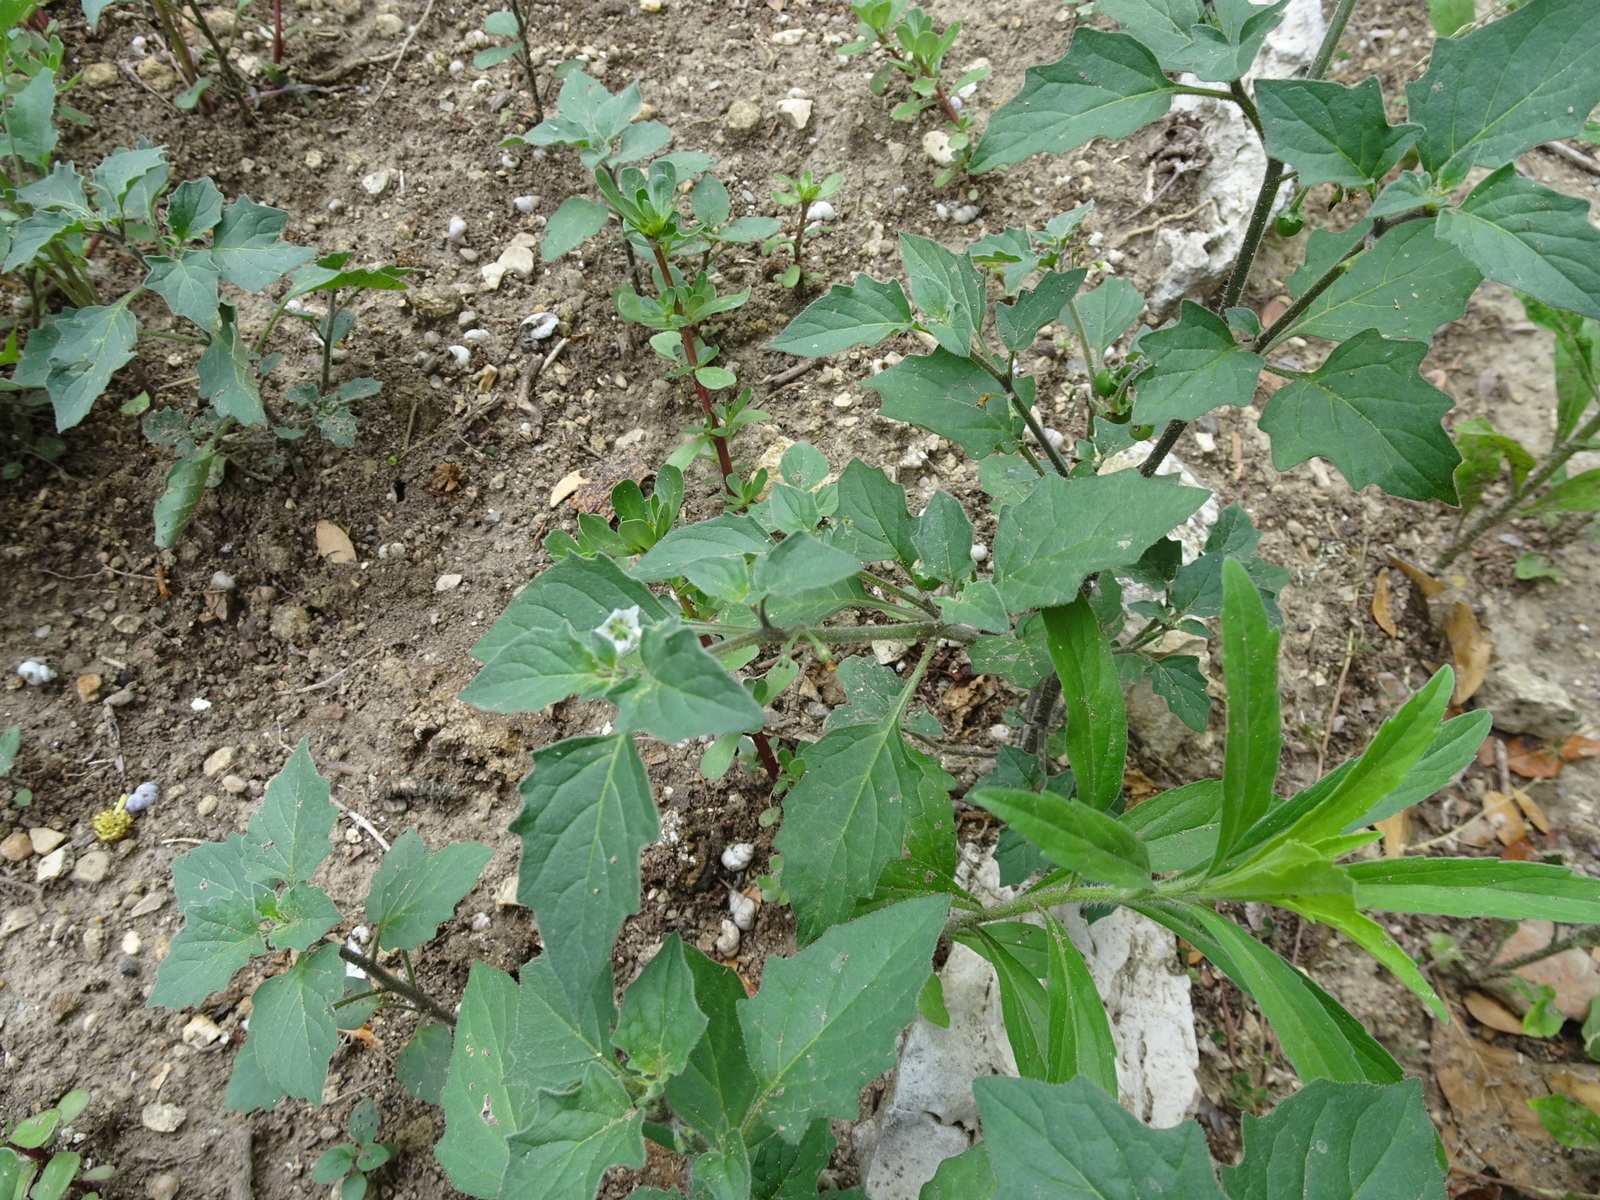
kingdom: Plantae
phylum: Tracheophyta
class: Magnoliopsida
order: Solanales
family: Solanaceae
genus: Solanum
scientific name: Solanum nigrum
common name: Black nightshade
